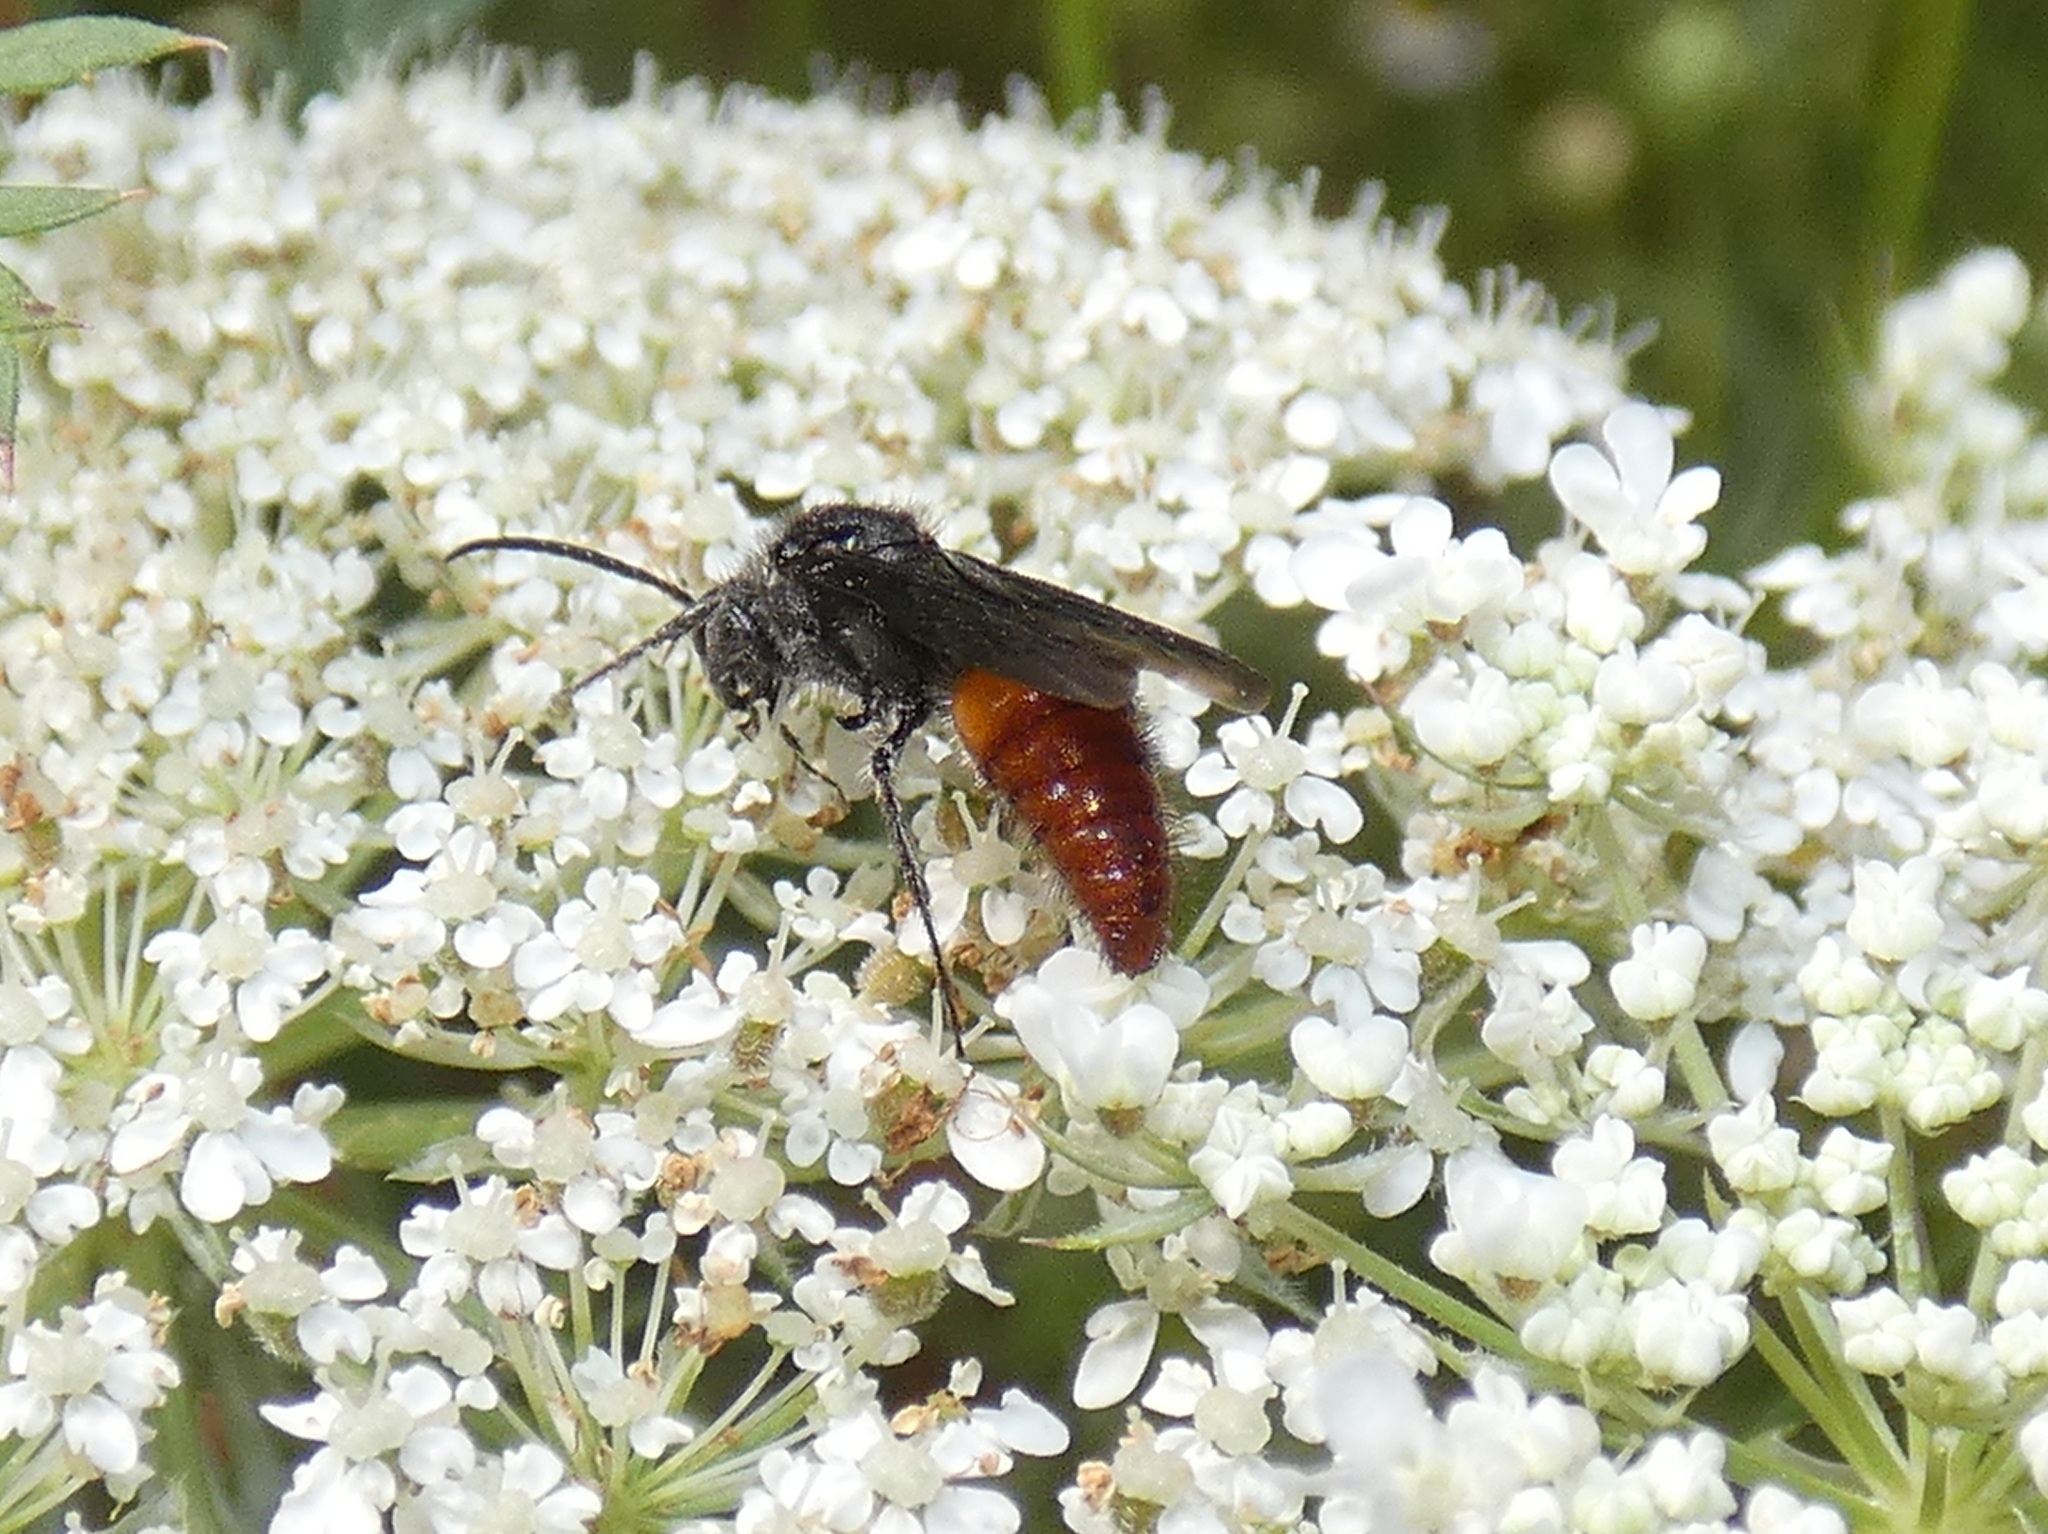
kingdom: Animalia
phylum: Arthropoda
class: Insecta
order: Hymenoptera
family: Mutillidae
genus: Timulla
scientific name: Timulla
